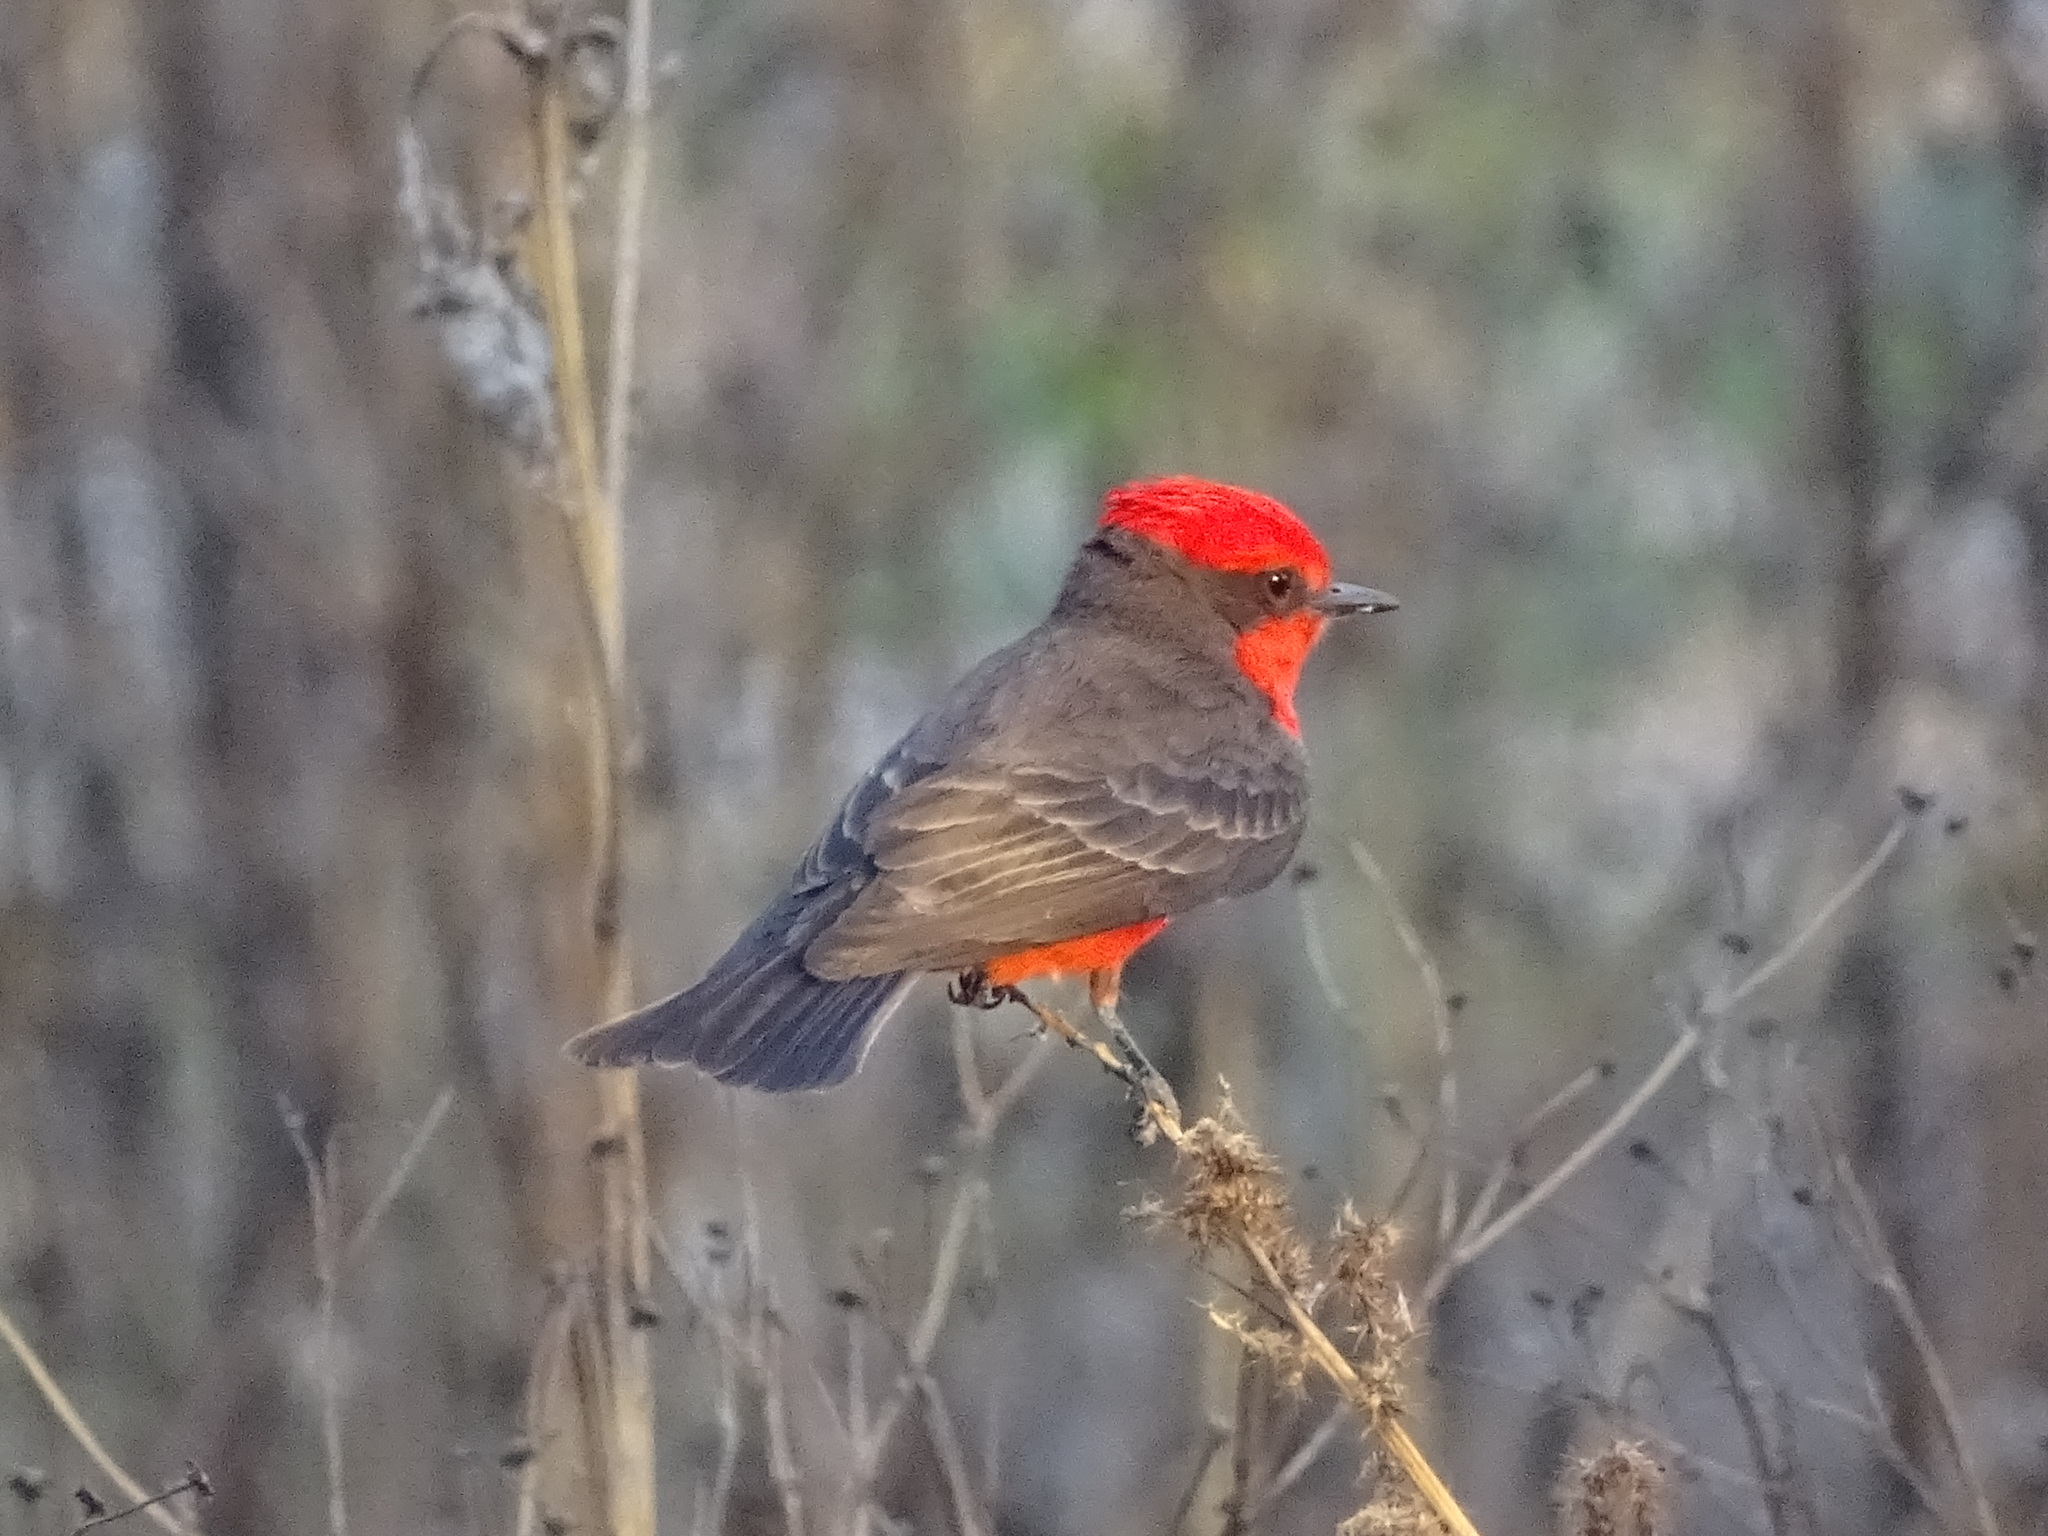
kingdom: Animalia
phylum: Chordata
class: Aves
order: Passeriformes
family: Tyrannidae
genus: Pyrocephalus
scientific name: Pyrocephalus rubinus
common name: Vermilion flycatcher
